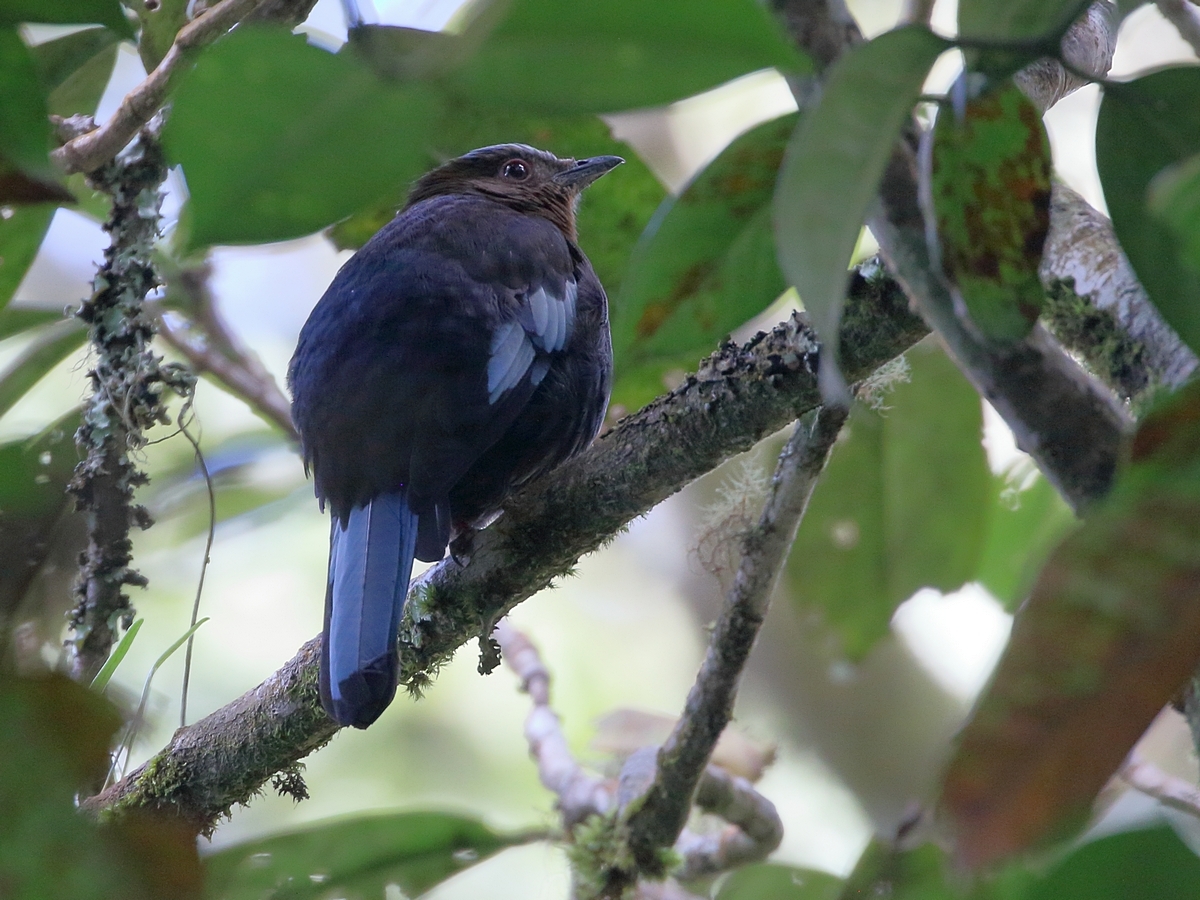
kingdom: Animalia
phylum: Chordata
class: Aves
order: Passeriformes
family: Turdidae
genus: Cochoa
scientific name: Cochoa beccarii
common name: Sumatran cochoa
